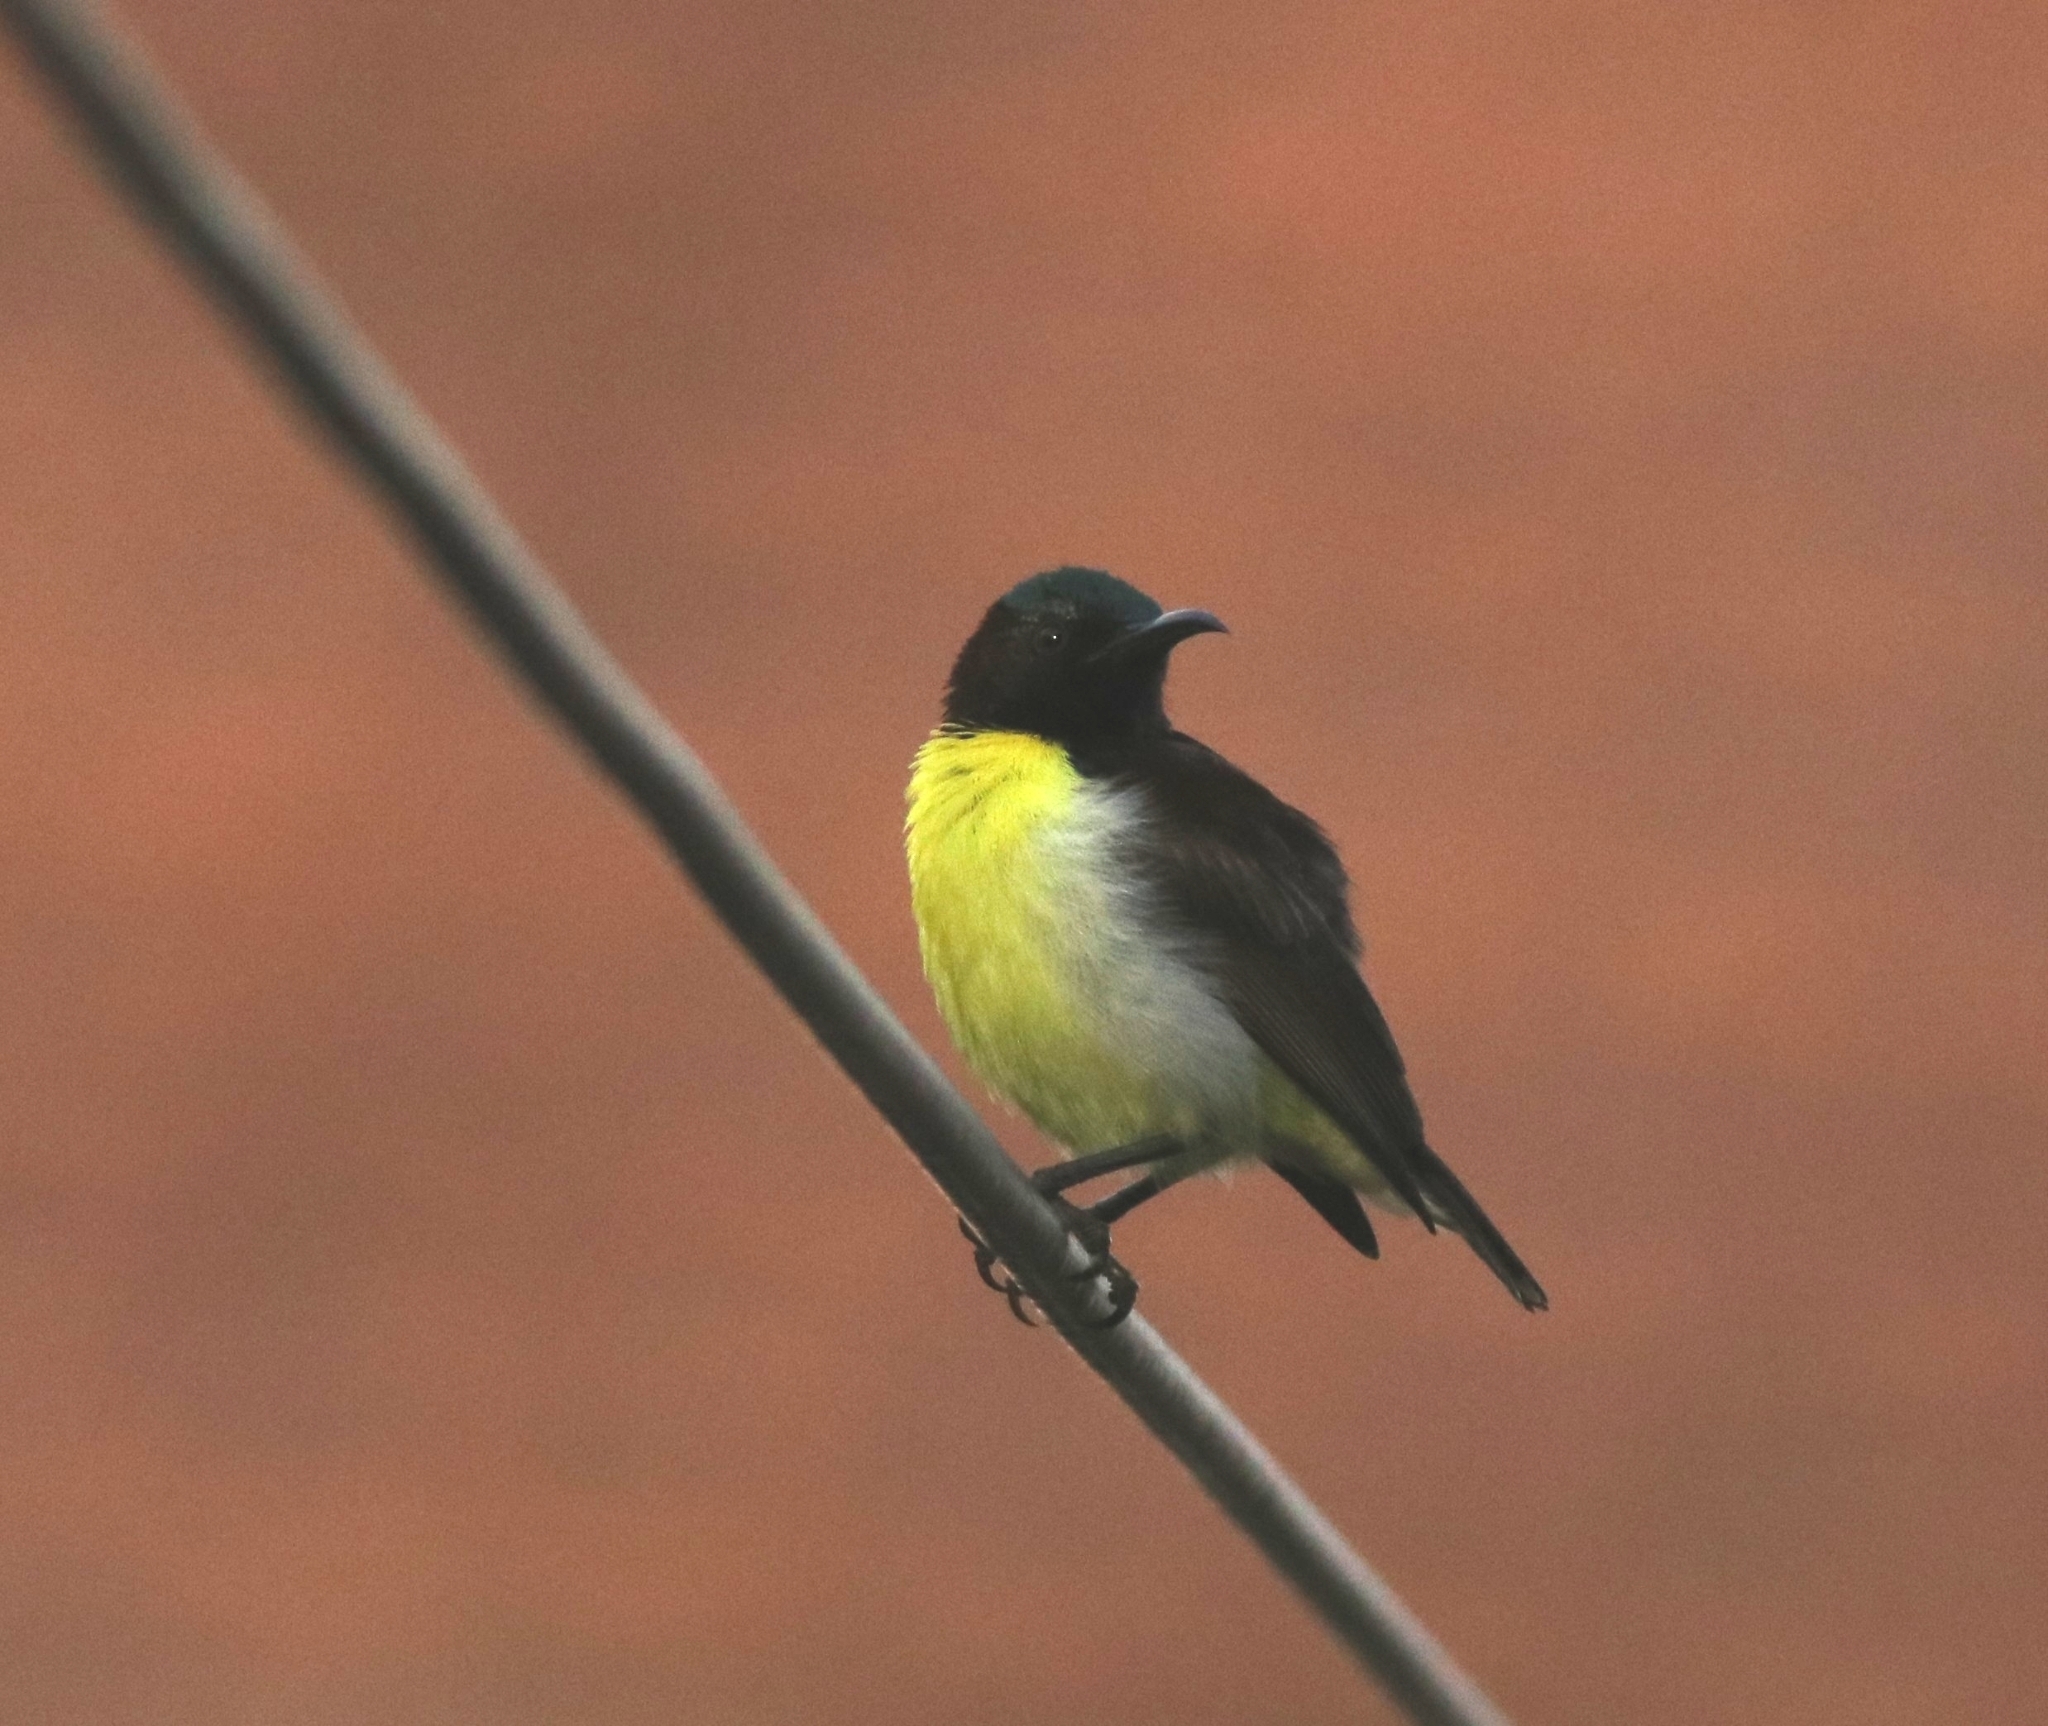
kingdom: Animalia
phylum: Chordata
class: Aves
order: Passeriformes
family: Nectariniidae
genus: Leptocoma
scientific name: Leptocoma zeylonica
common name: Purple-rumped sunbird
